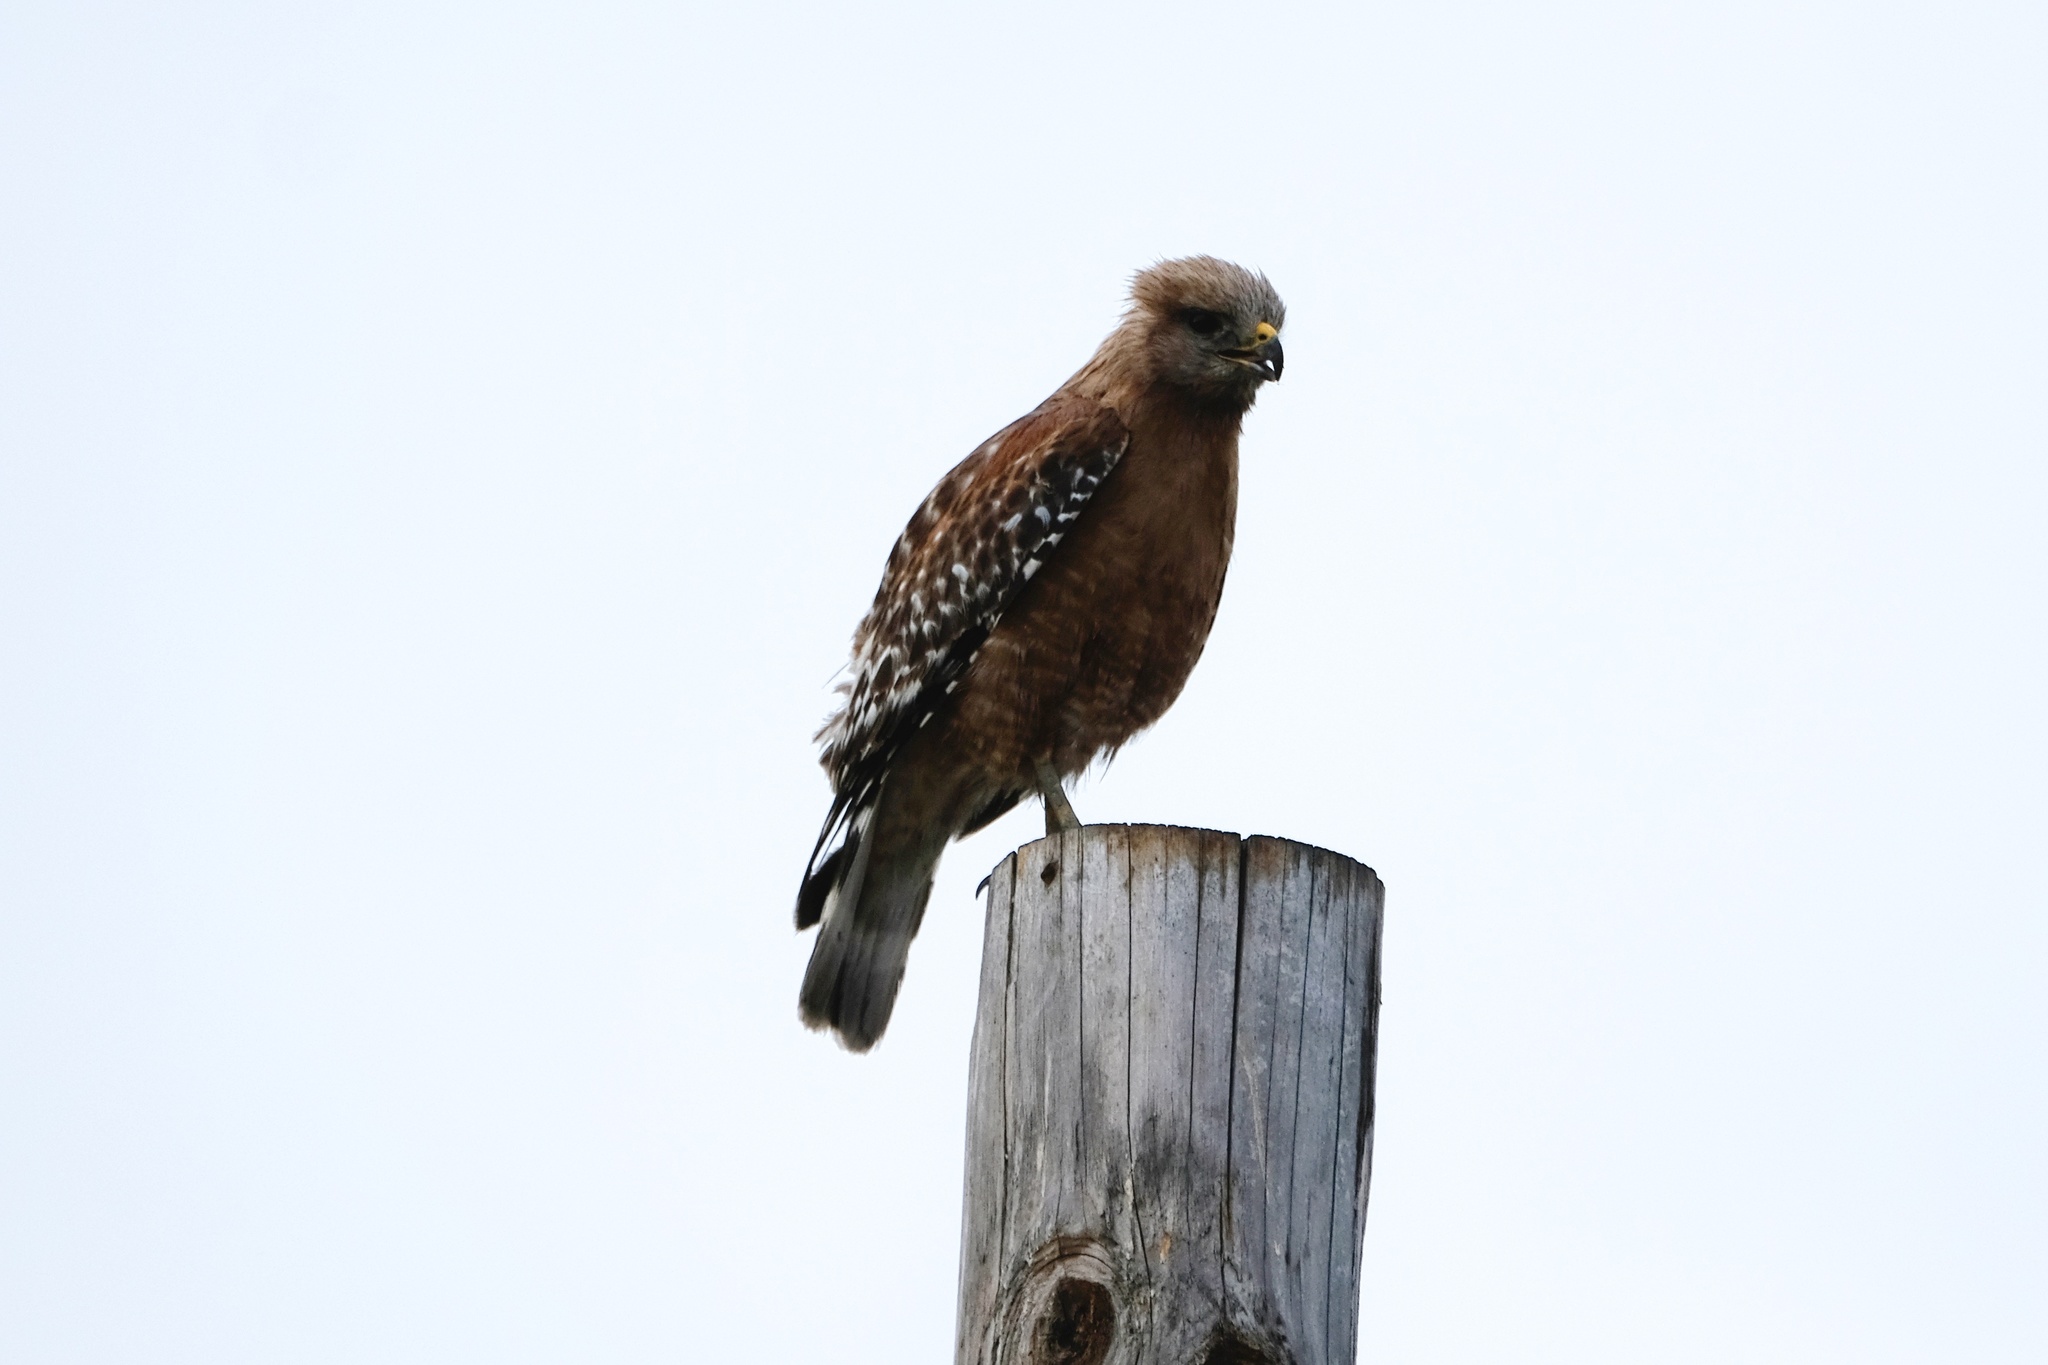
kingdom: Animalia
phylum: Chordata
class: Aves
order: Accipitriformes
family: Accipitridae
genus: Buteo
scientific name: Buteo lineatus
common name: Red-shouldered hawk
